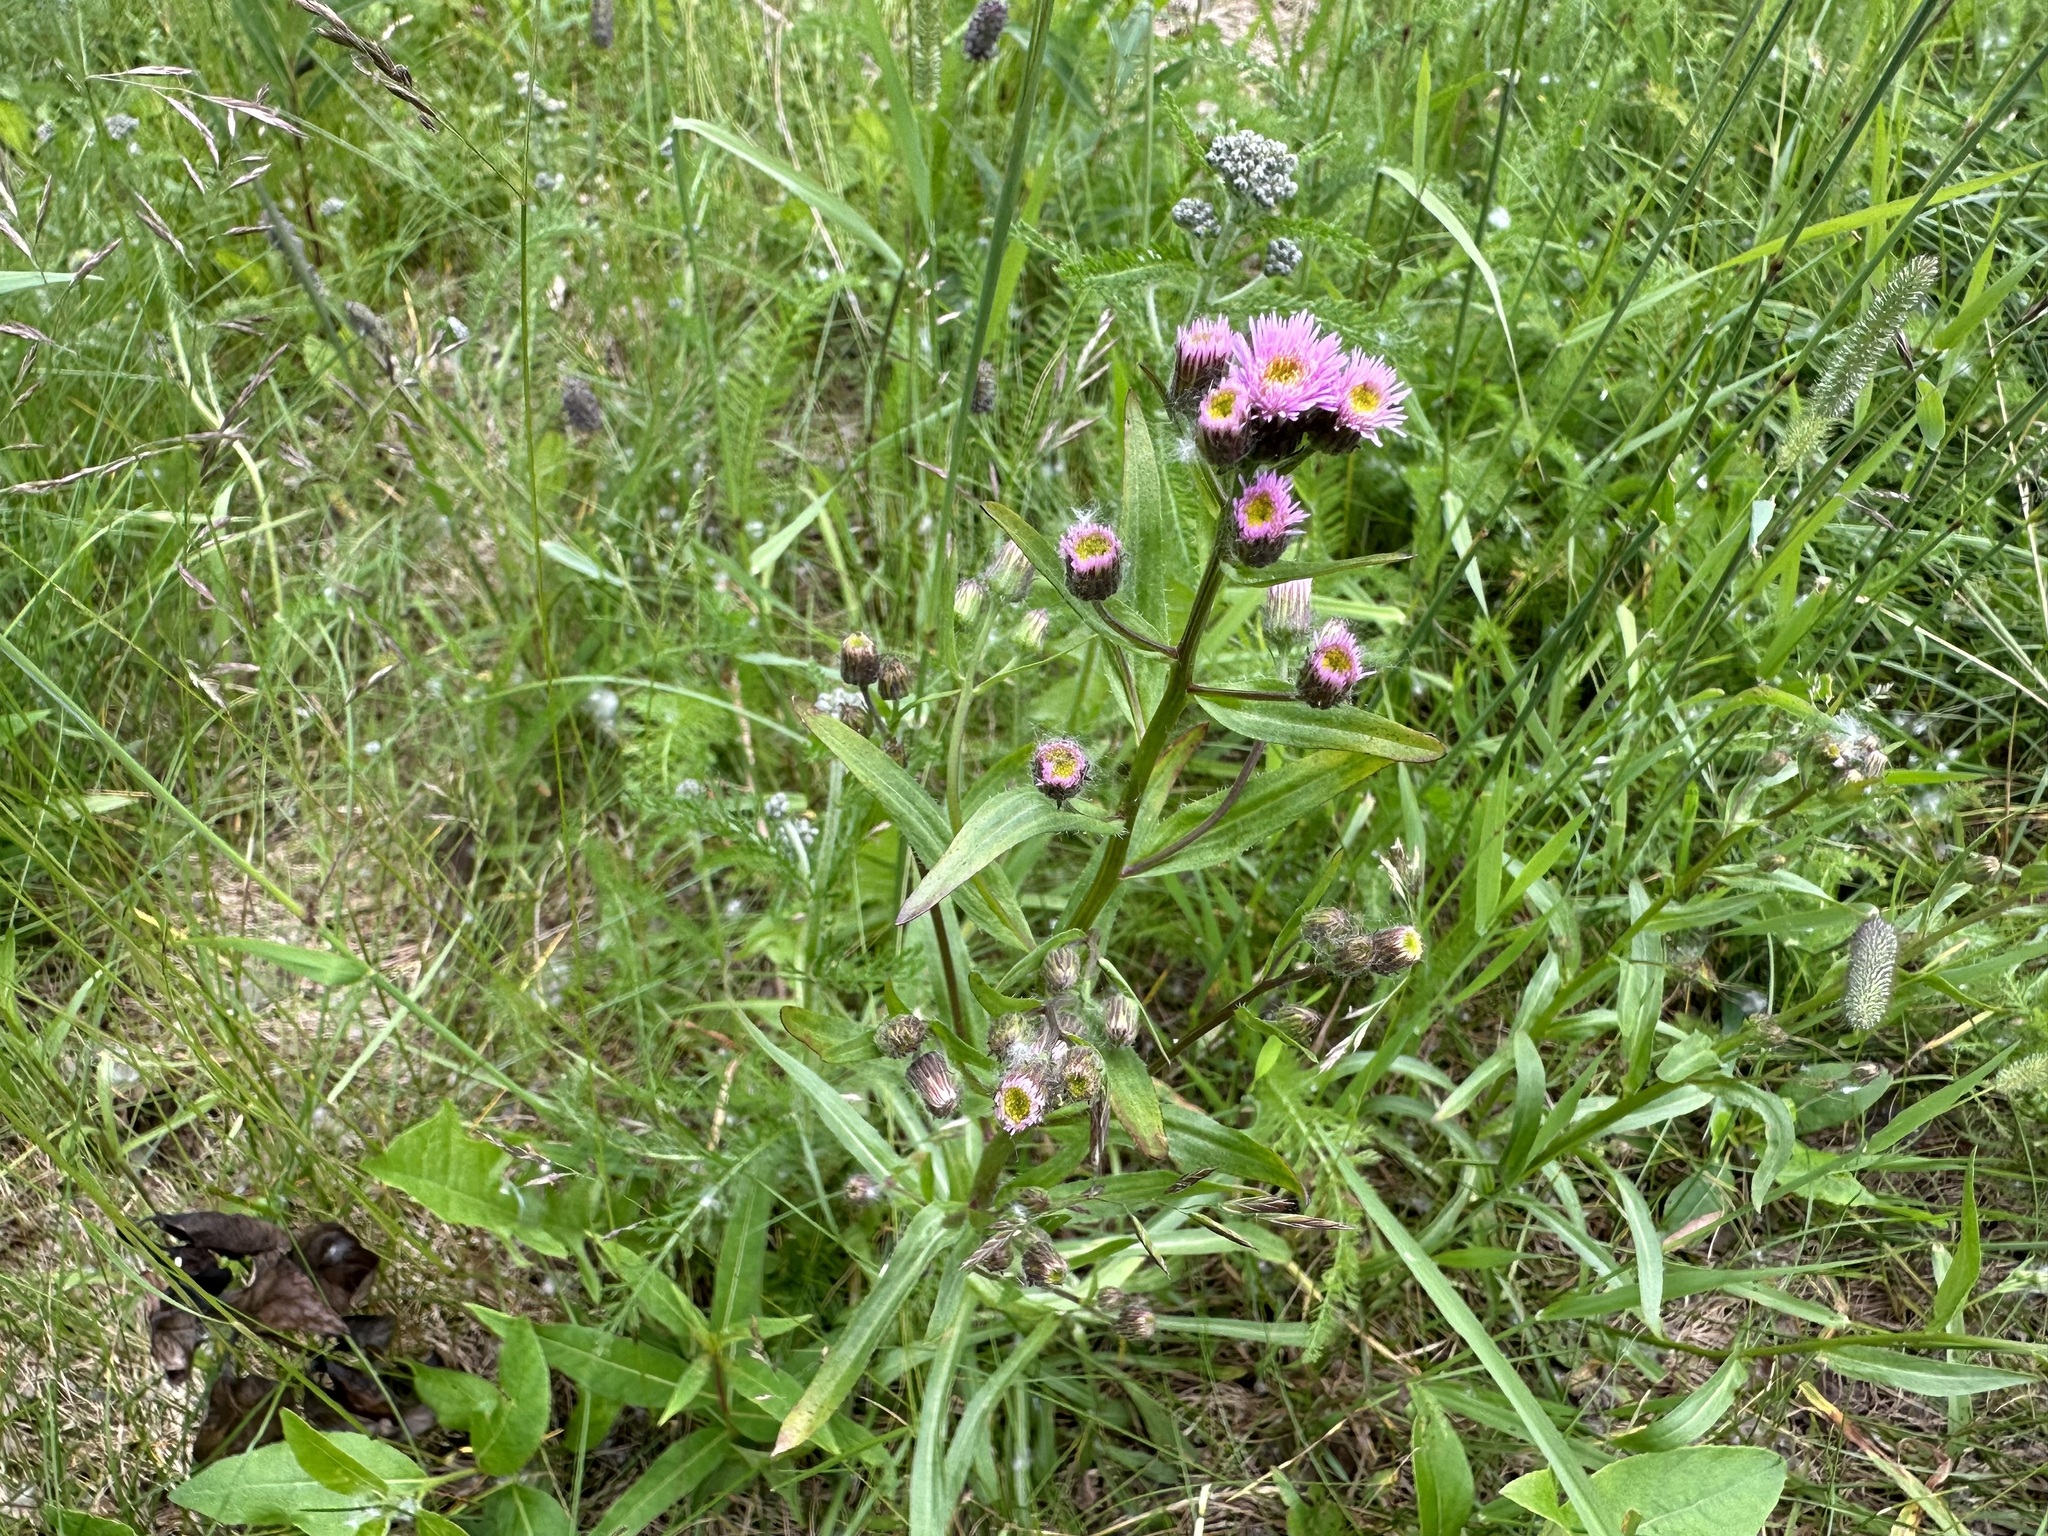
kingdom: Plantae
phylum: Tracheophyta
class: Magnoliopsida
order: Asterales
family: Asteraceae
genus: Erigeron
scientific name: Erigeron acris
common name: Blue fleabane
